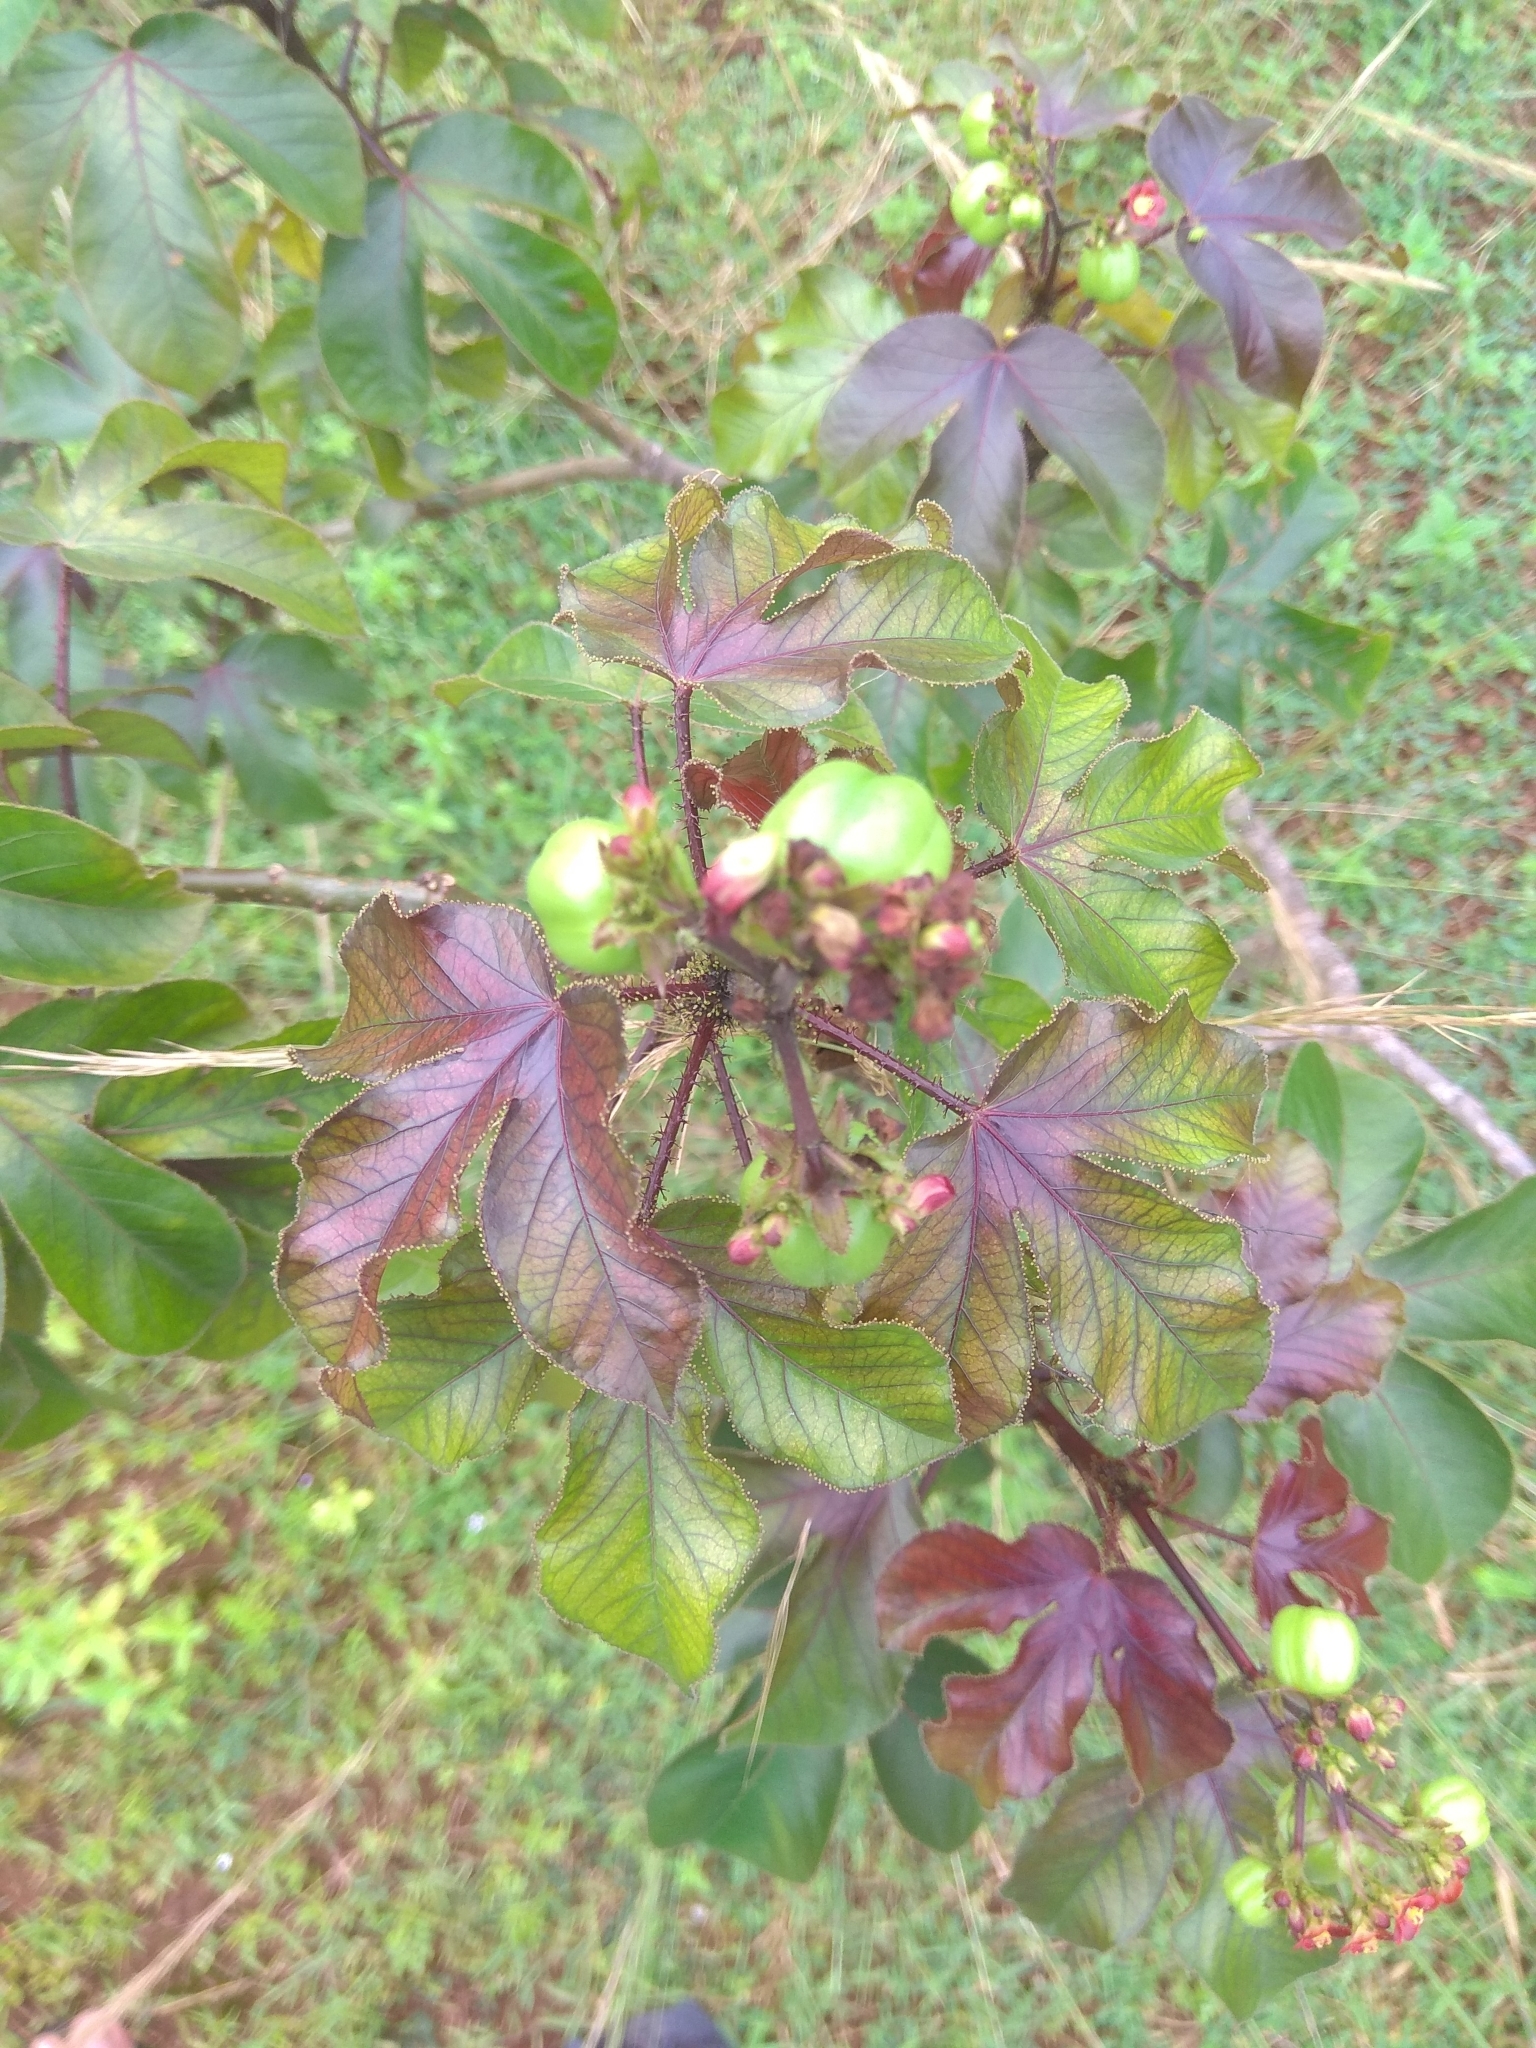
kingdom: Plantae
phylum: Tracheophyta
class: Magnoliopsida
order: Malpighiales
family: Euphorbiaceae
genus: Jatropha
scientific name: Jatropha gossypiifolia
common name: Bellyache bush
